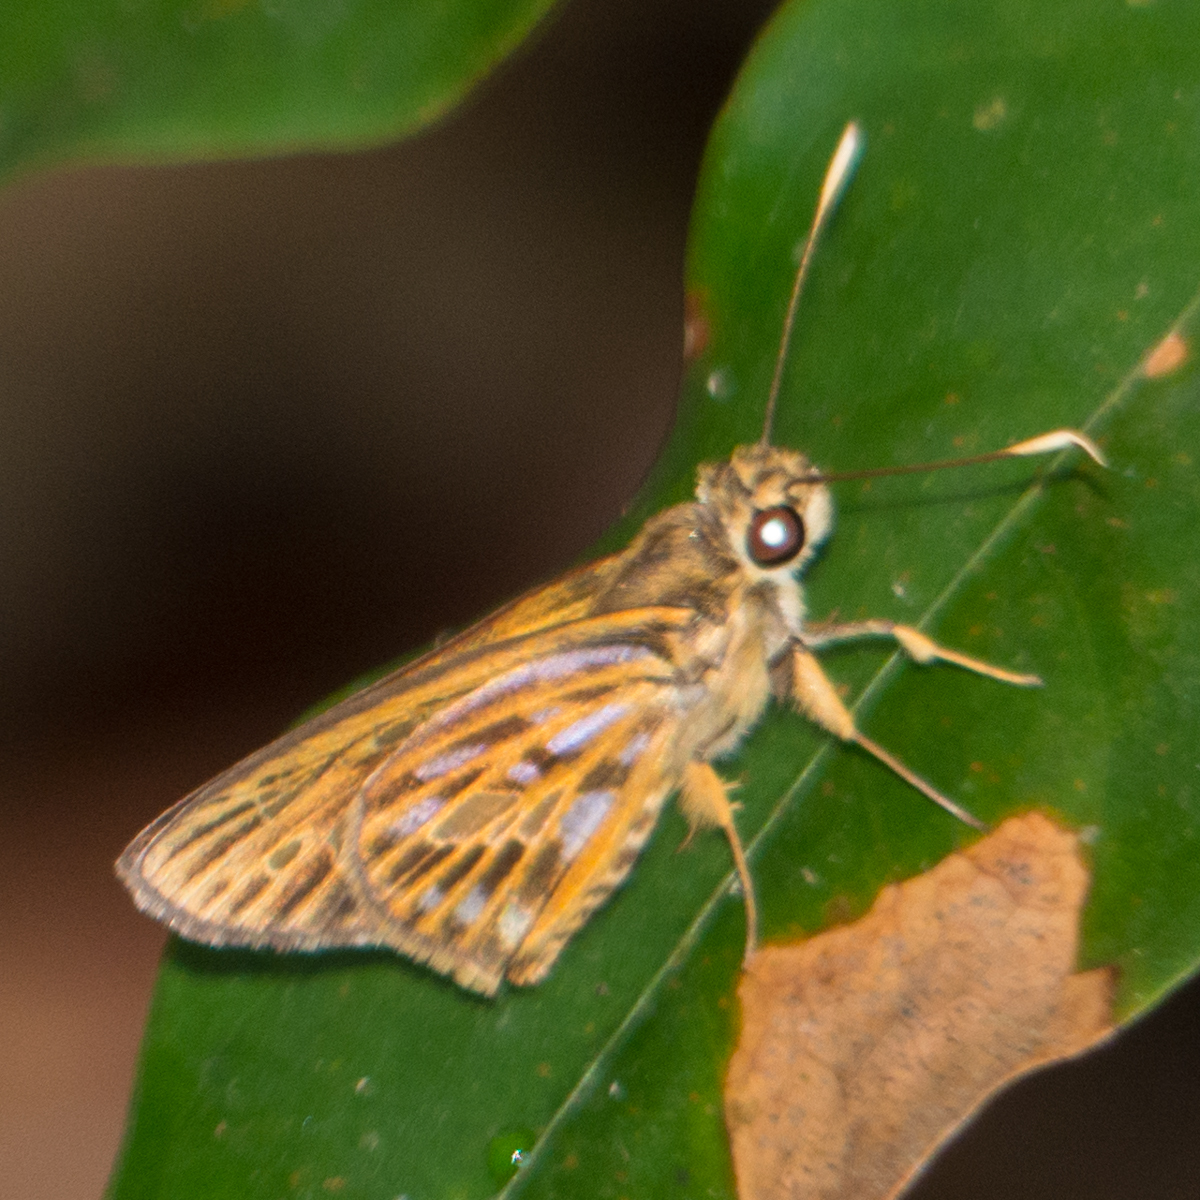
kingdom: Animalia
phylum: Arthropoda
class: Insecta
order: Lepidoptera
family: Hesperiidae
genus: Pyroneura
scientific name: Pyroneura margherita
